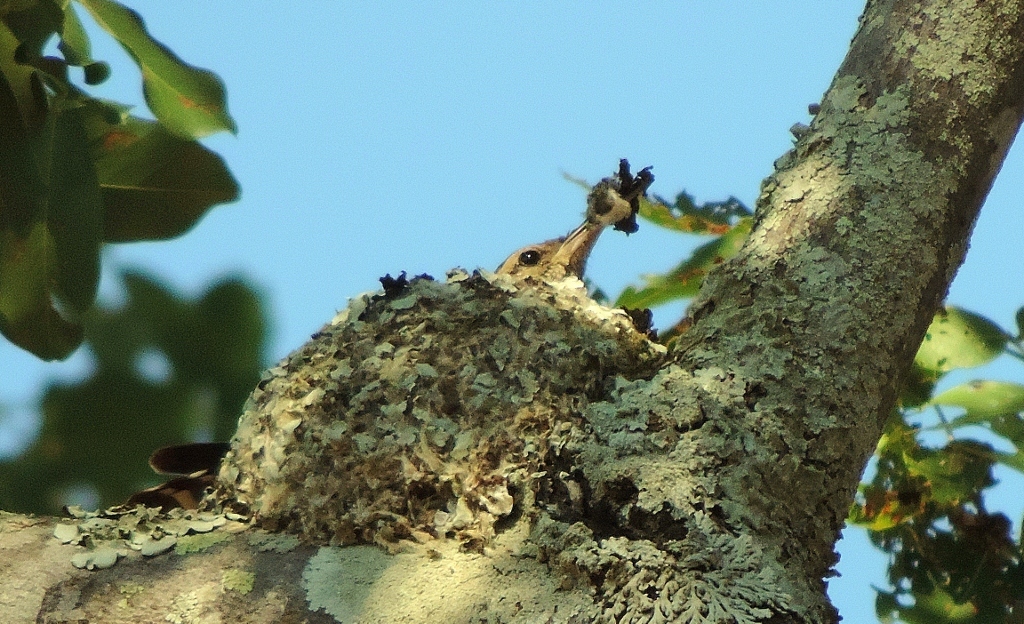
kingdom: Animalia
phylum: Chordata
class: Aves
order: Passeriformes
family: Certhiidae
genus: Salpornis
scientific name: Salpornis salvadori
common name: African spotted creeper
